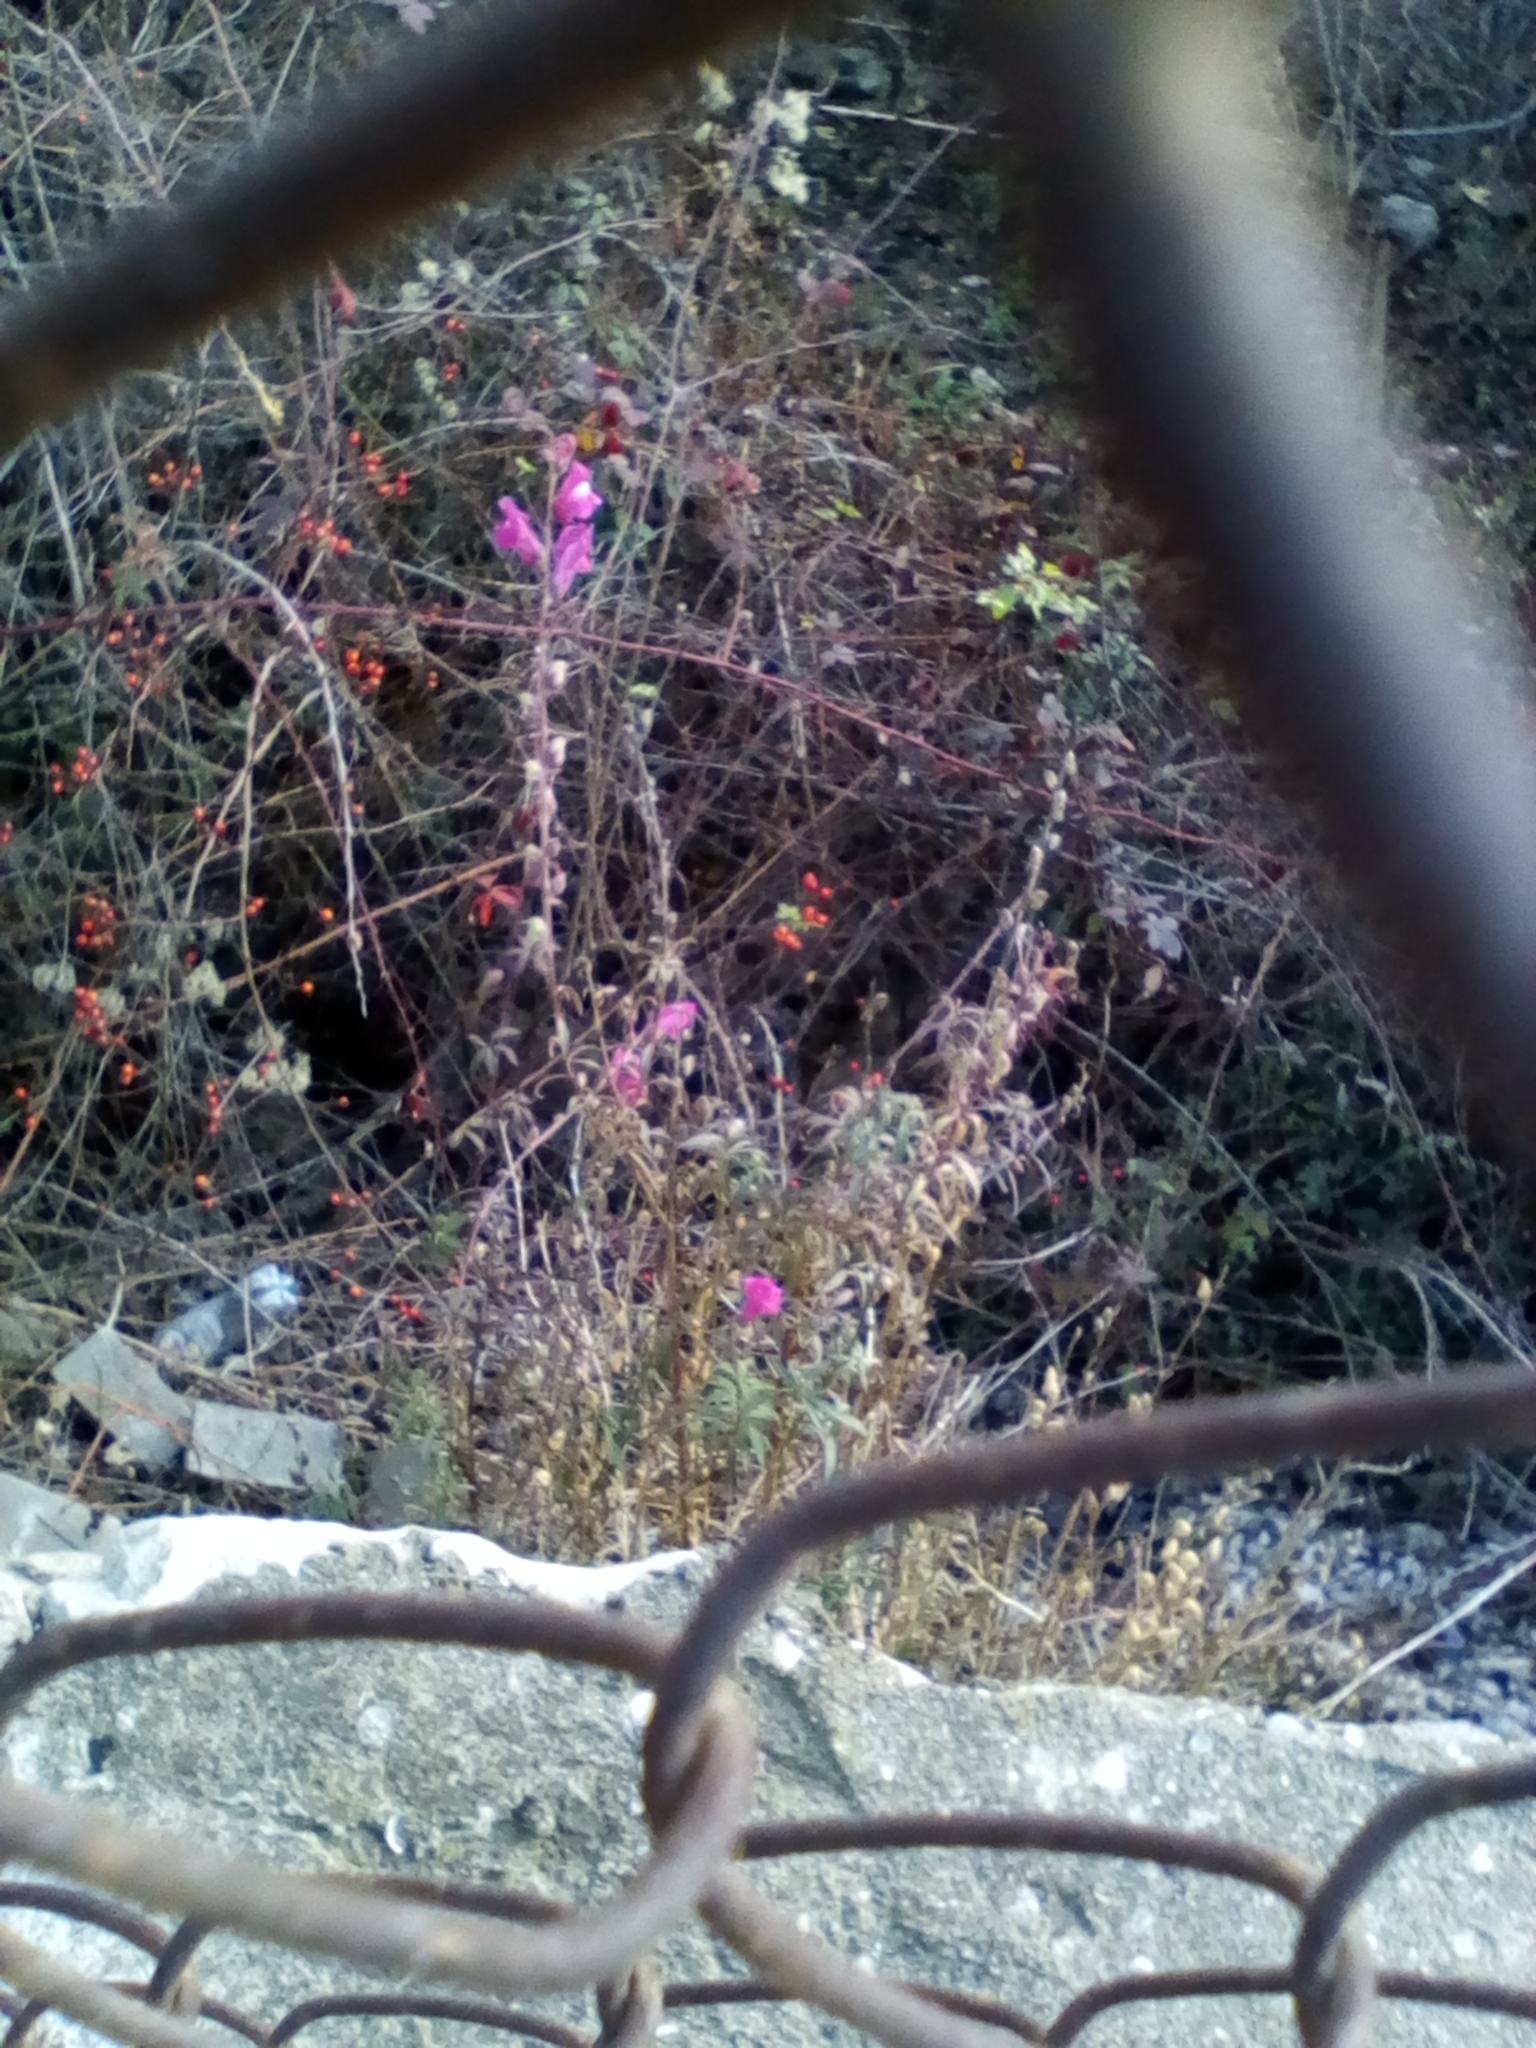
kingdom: Plantae
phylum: Tracheophyta
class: Magnoliopsida
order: Lamiales
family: Plantaginaceae
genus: Antirrhinum
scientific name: Antirrhinum majus
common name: Snapdragon
